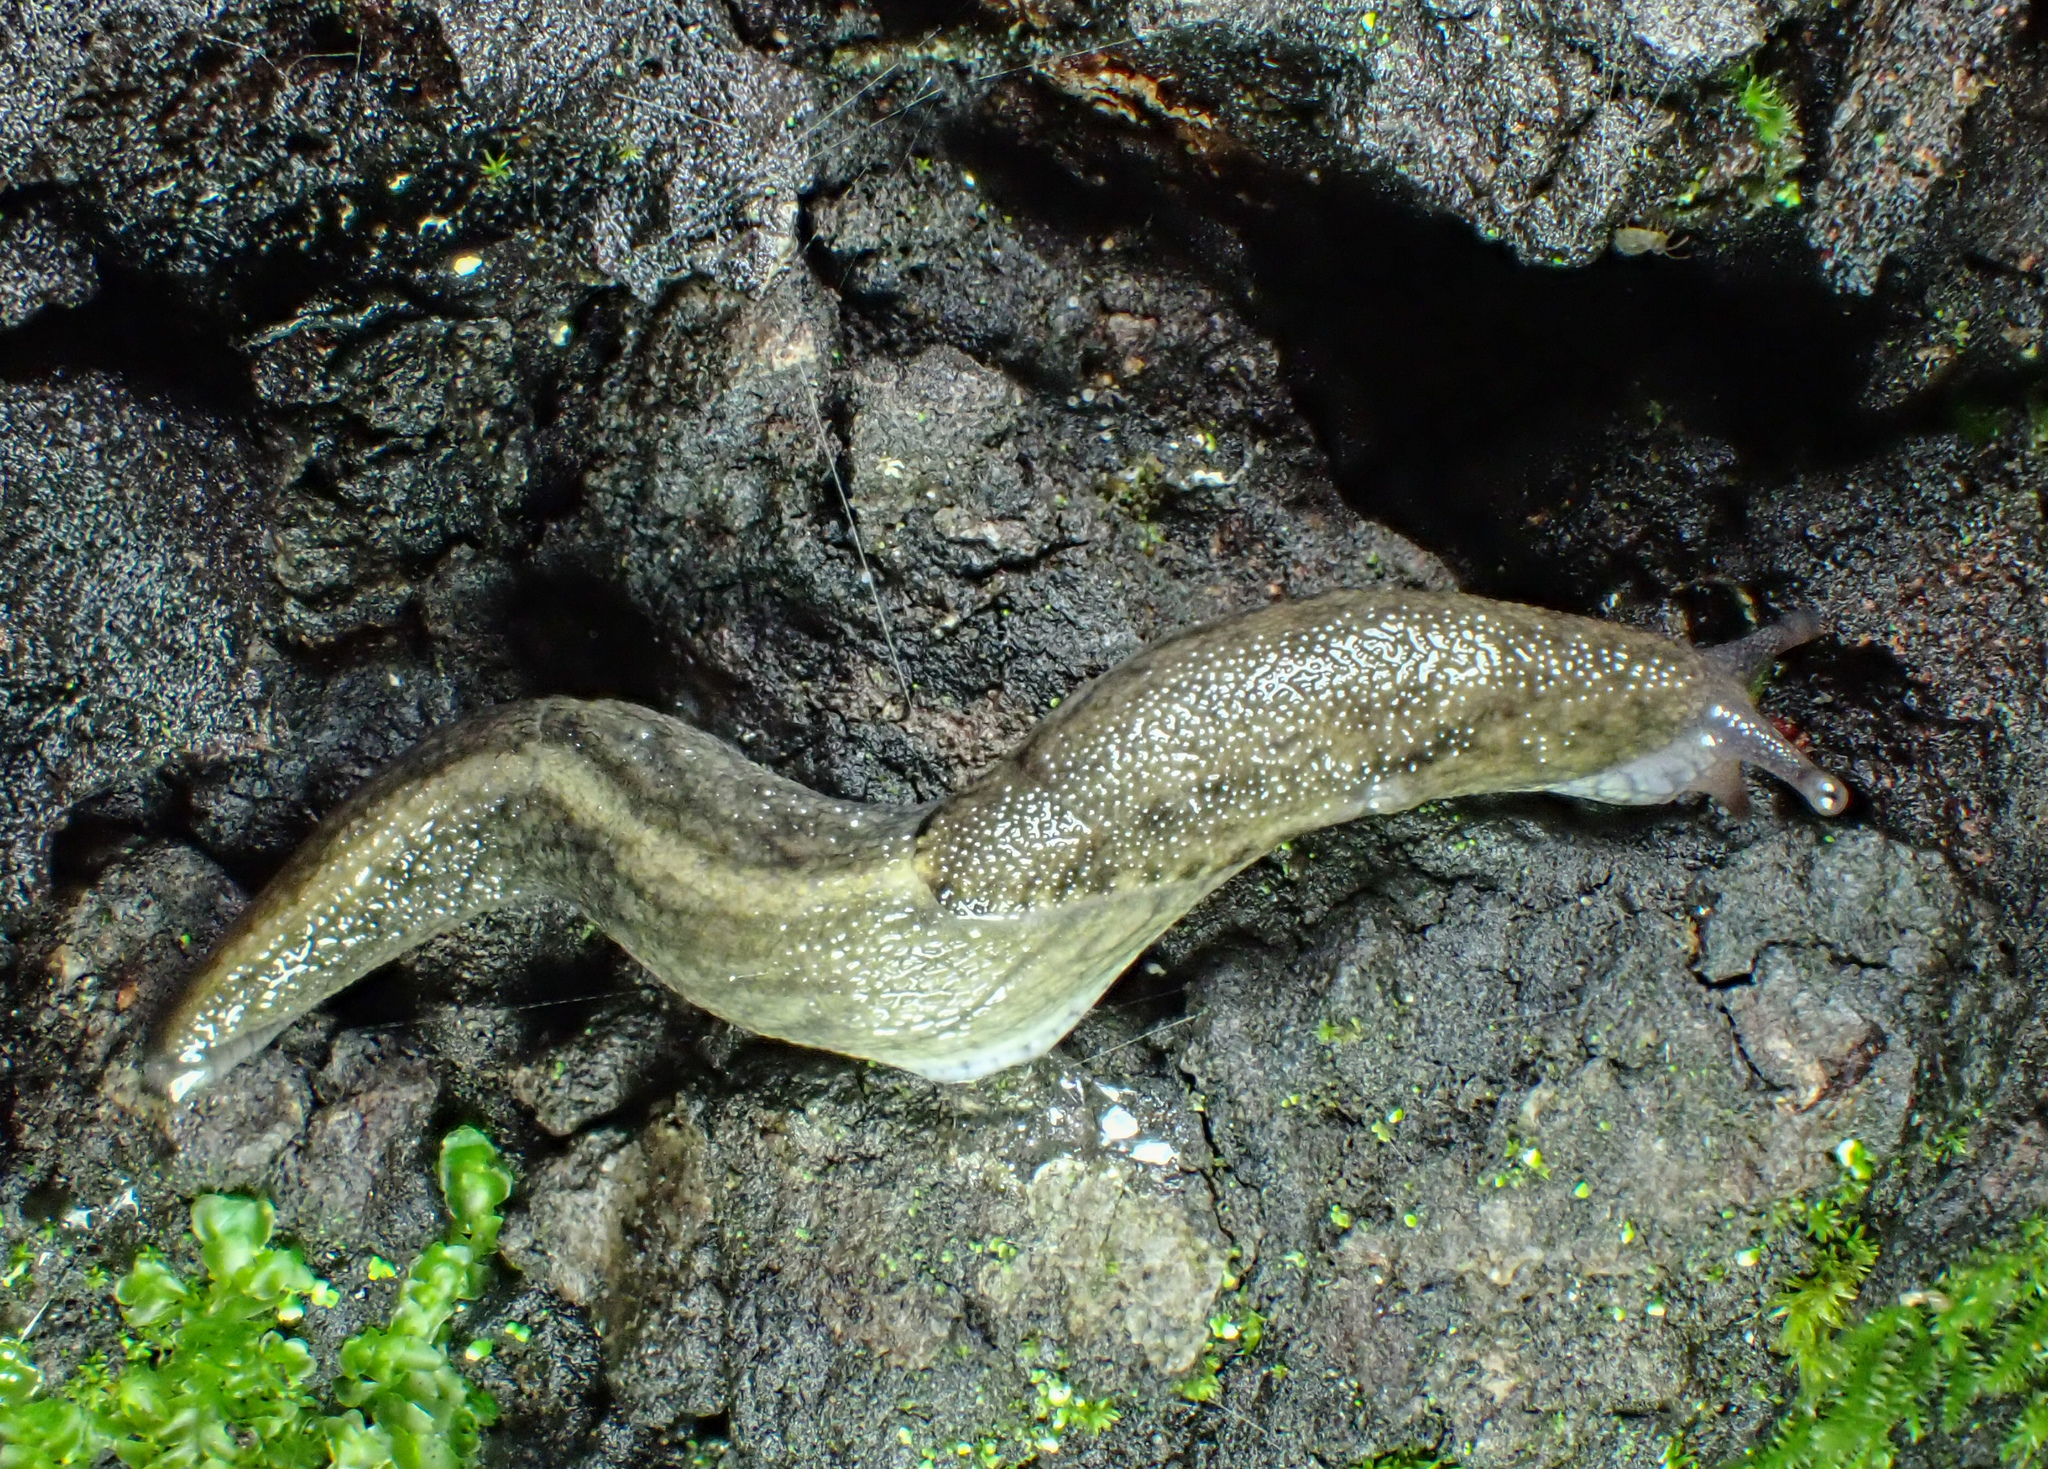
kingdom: Animalia
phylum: Mollusca
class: Gastropoda
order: Stylommatophora
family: Ariolimacidae
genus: Prophysaon
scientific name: Prophysaon andersonii
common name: Reticulate taildropper
